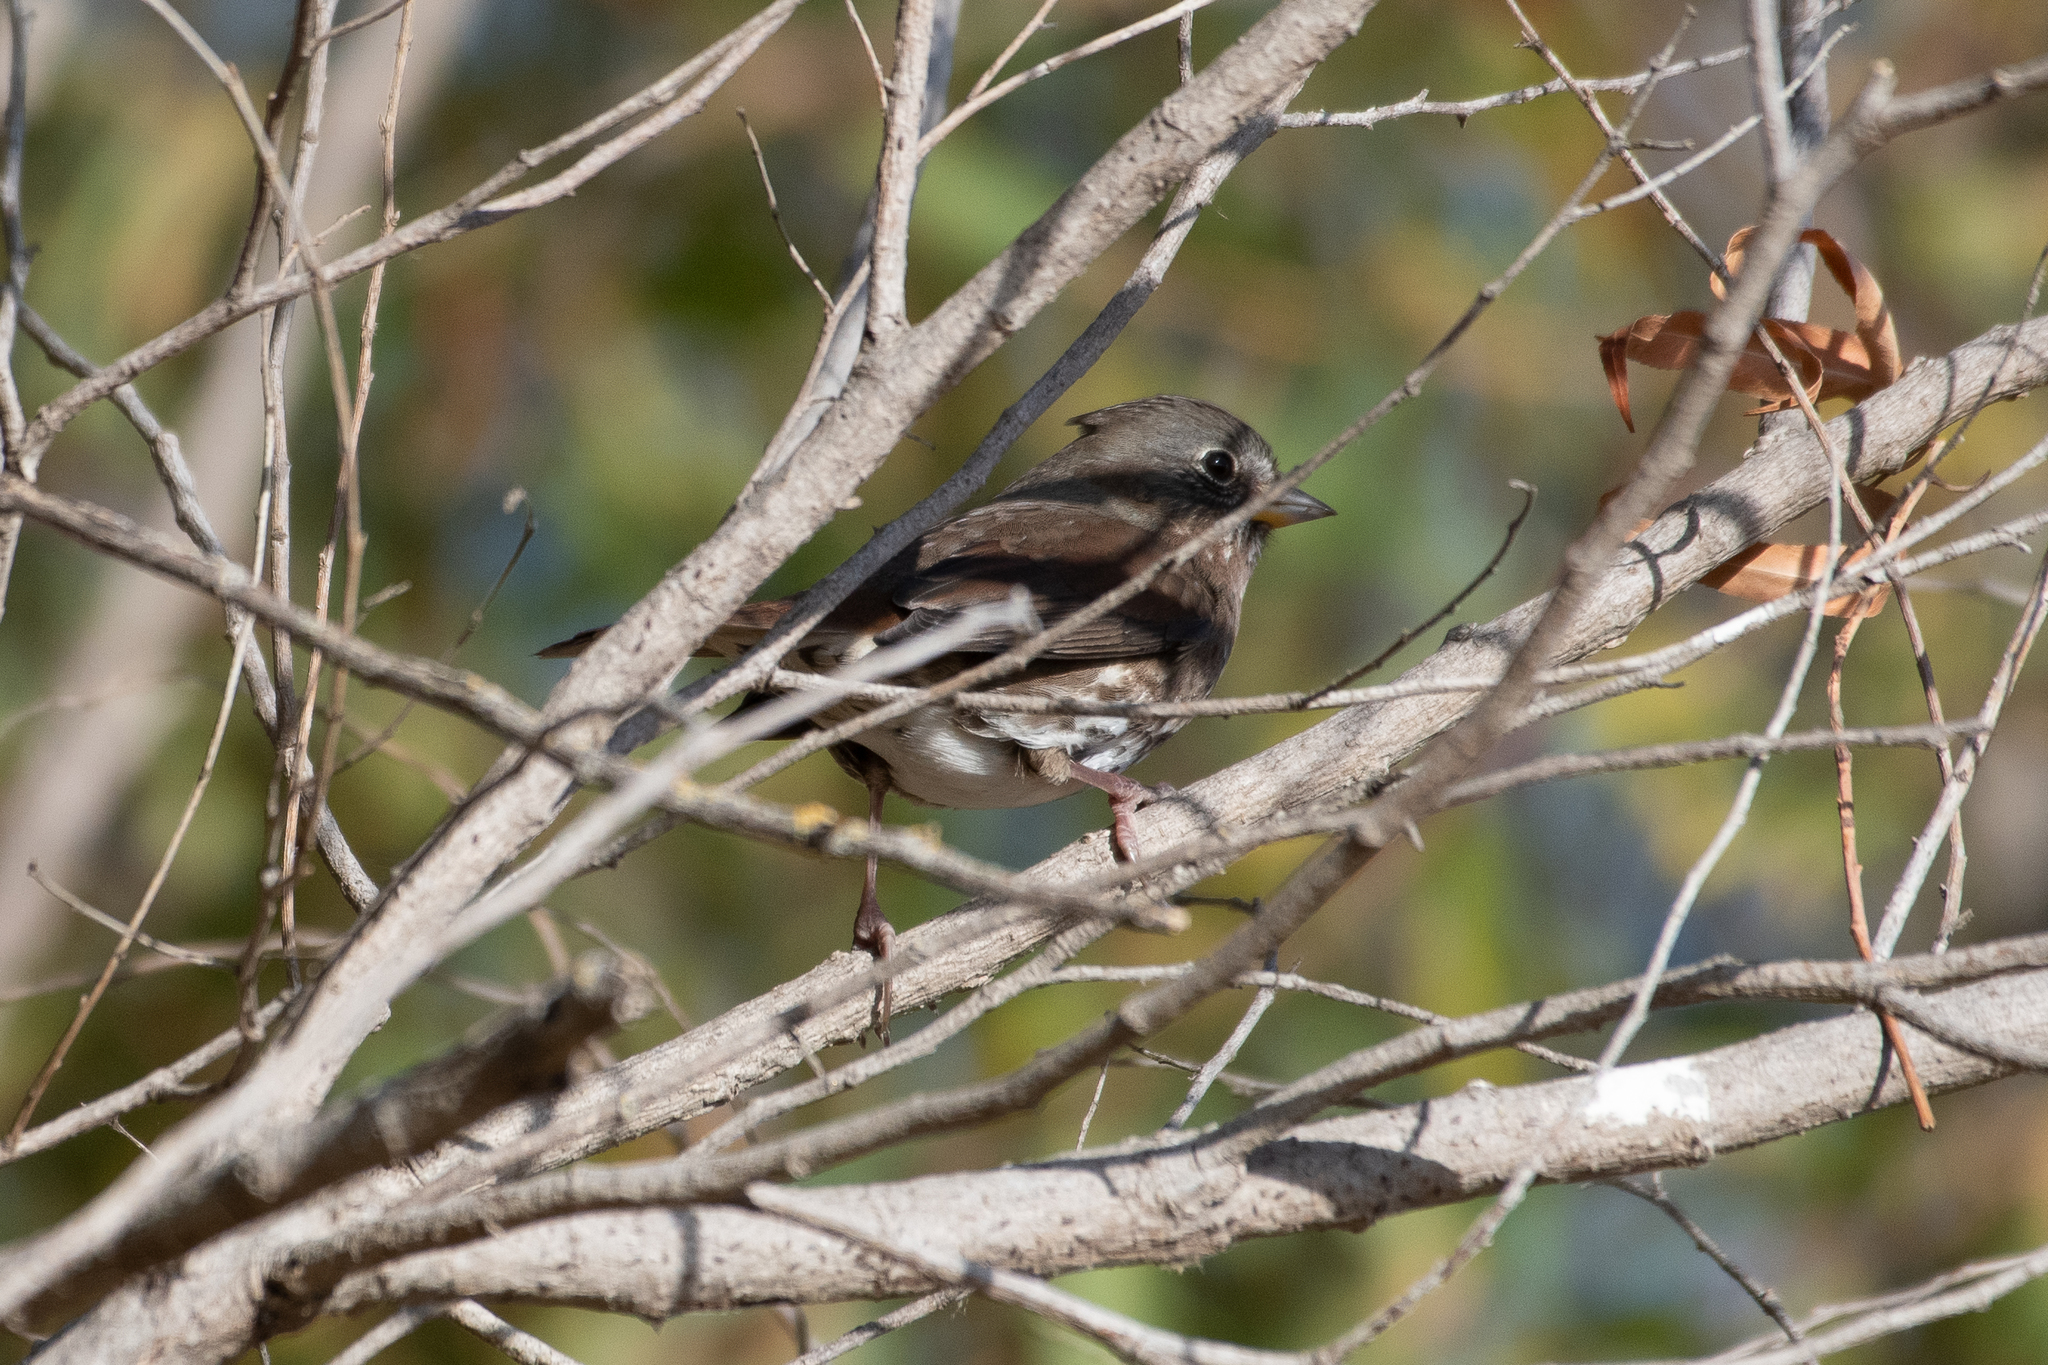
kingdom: Animalia
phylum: Chordata
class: Aves
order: Passeriformes
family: Passerellidae
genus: Passerella
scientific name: Passerella iliaca
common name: Fox sparrow
